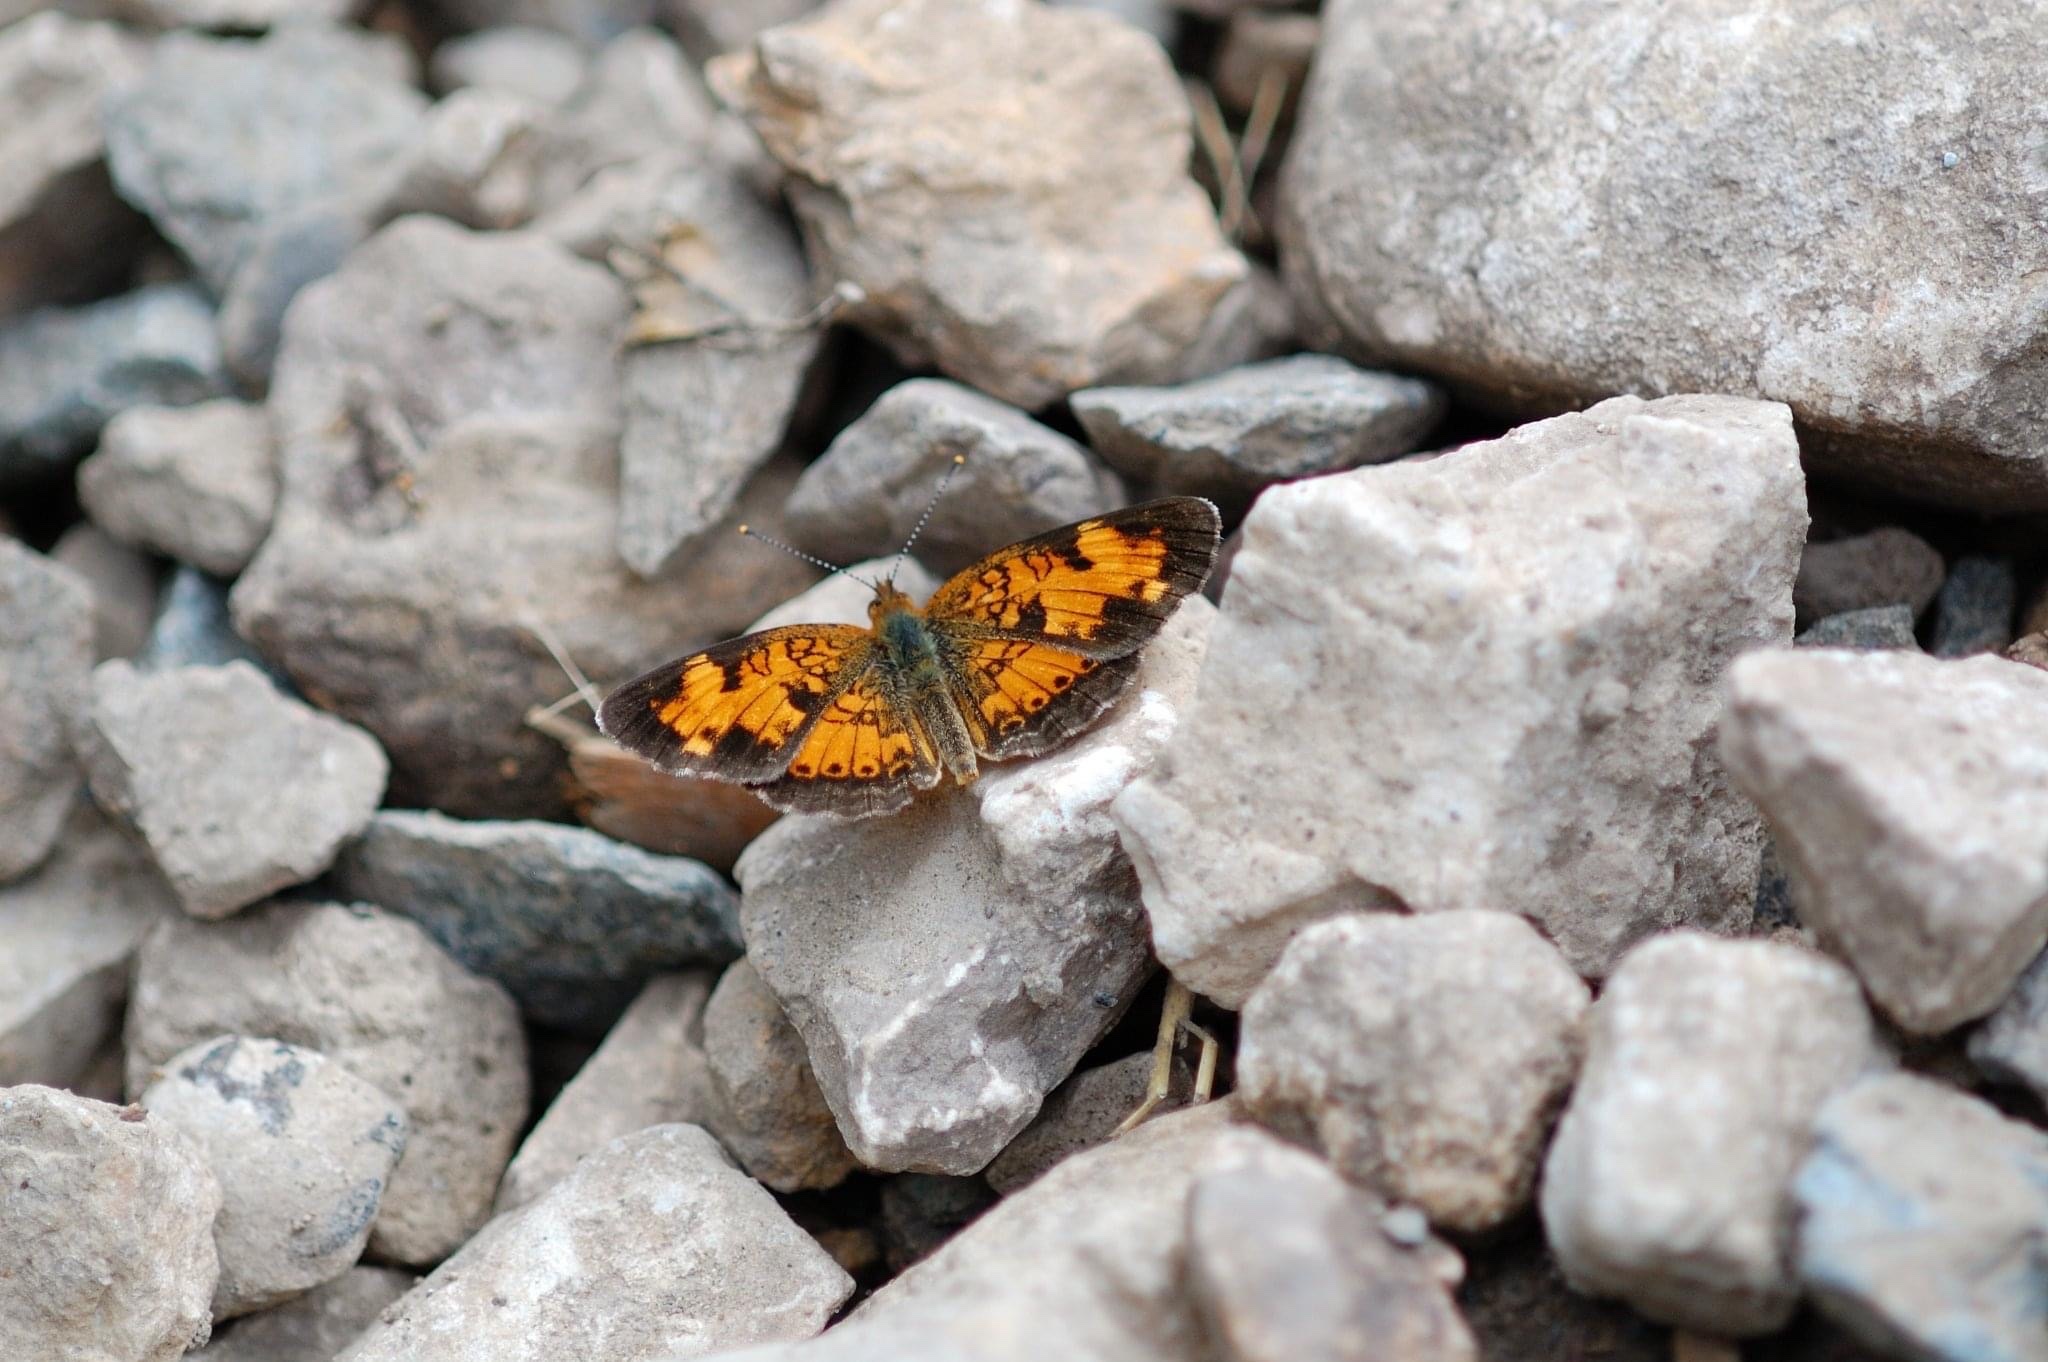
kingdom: Animalia
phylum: Arthropoda
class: Insecta
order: Lepidoptera
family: Nymphalidae
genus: Phyciodes
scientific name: Phyciodes tharos
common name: Pearl crescent
